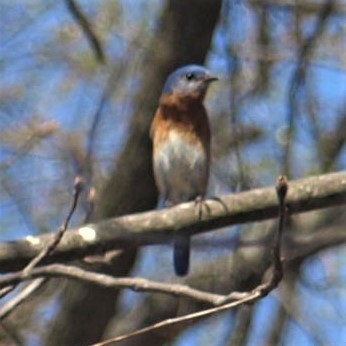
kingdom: Animalia
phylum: Chordata
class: Aves
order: Passeriformes
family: Turdidae
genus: Sialia
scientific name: Sialia sialis
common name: Eastern bluebird
